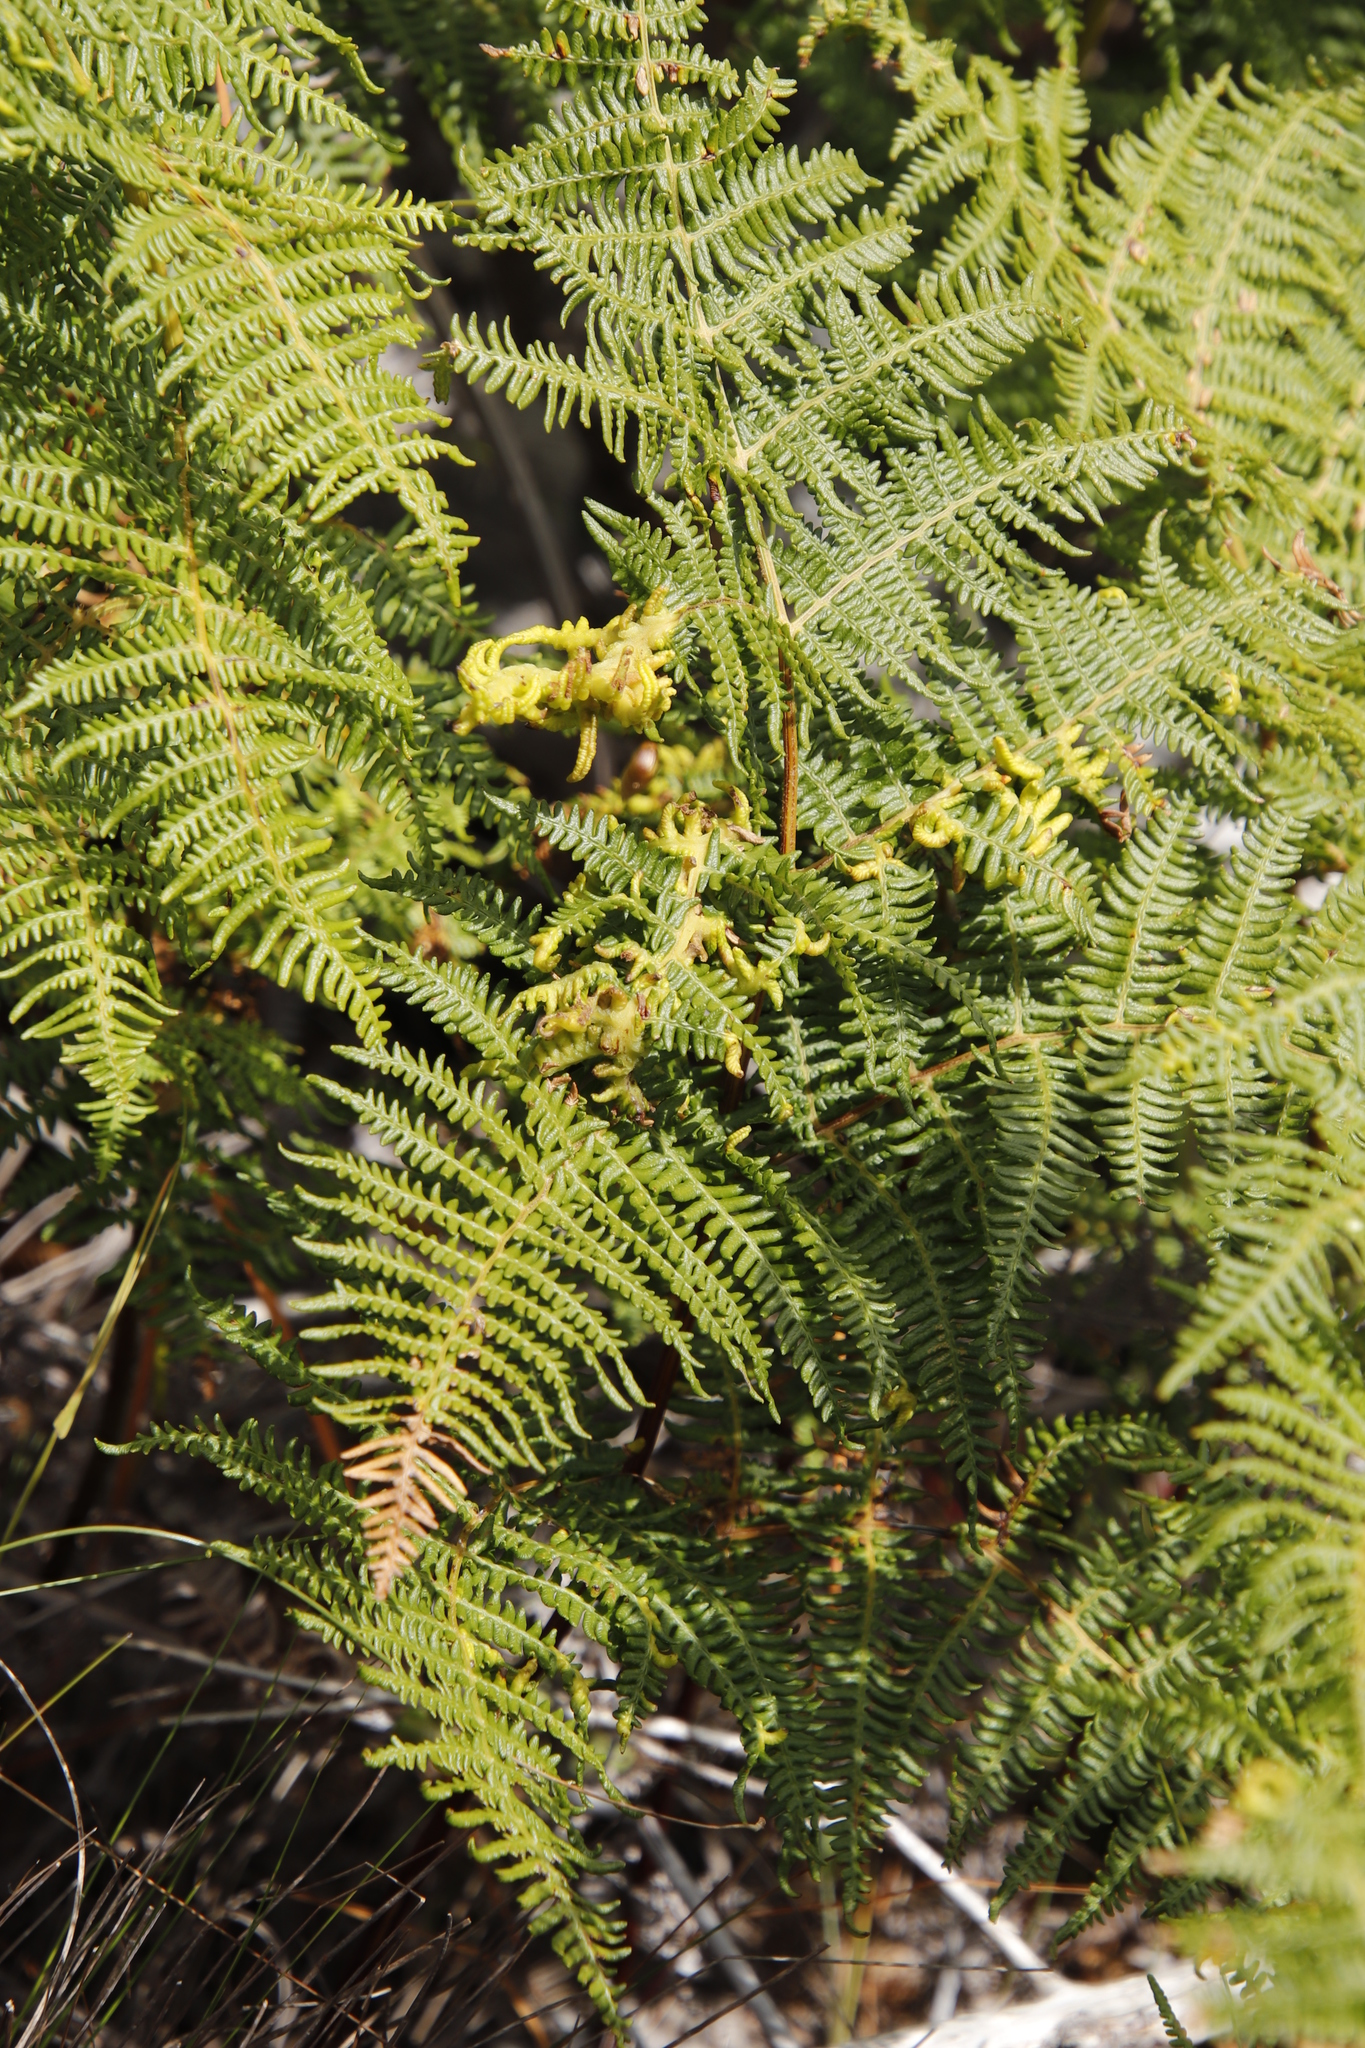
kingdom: Animalia
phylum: Arthropoda
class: Arachnida
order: Trombidiformes
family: Eriophyidae
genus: Eriophyes
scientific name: Eriophyes
